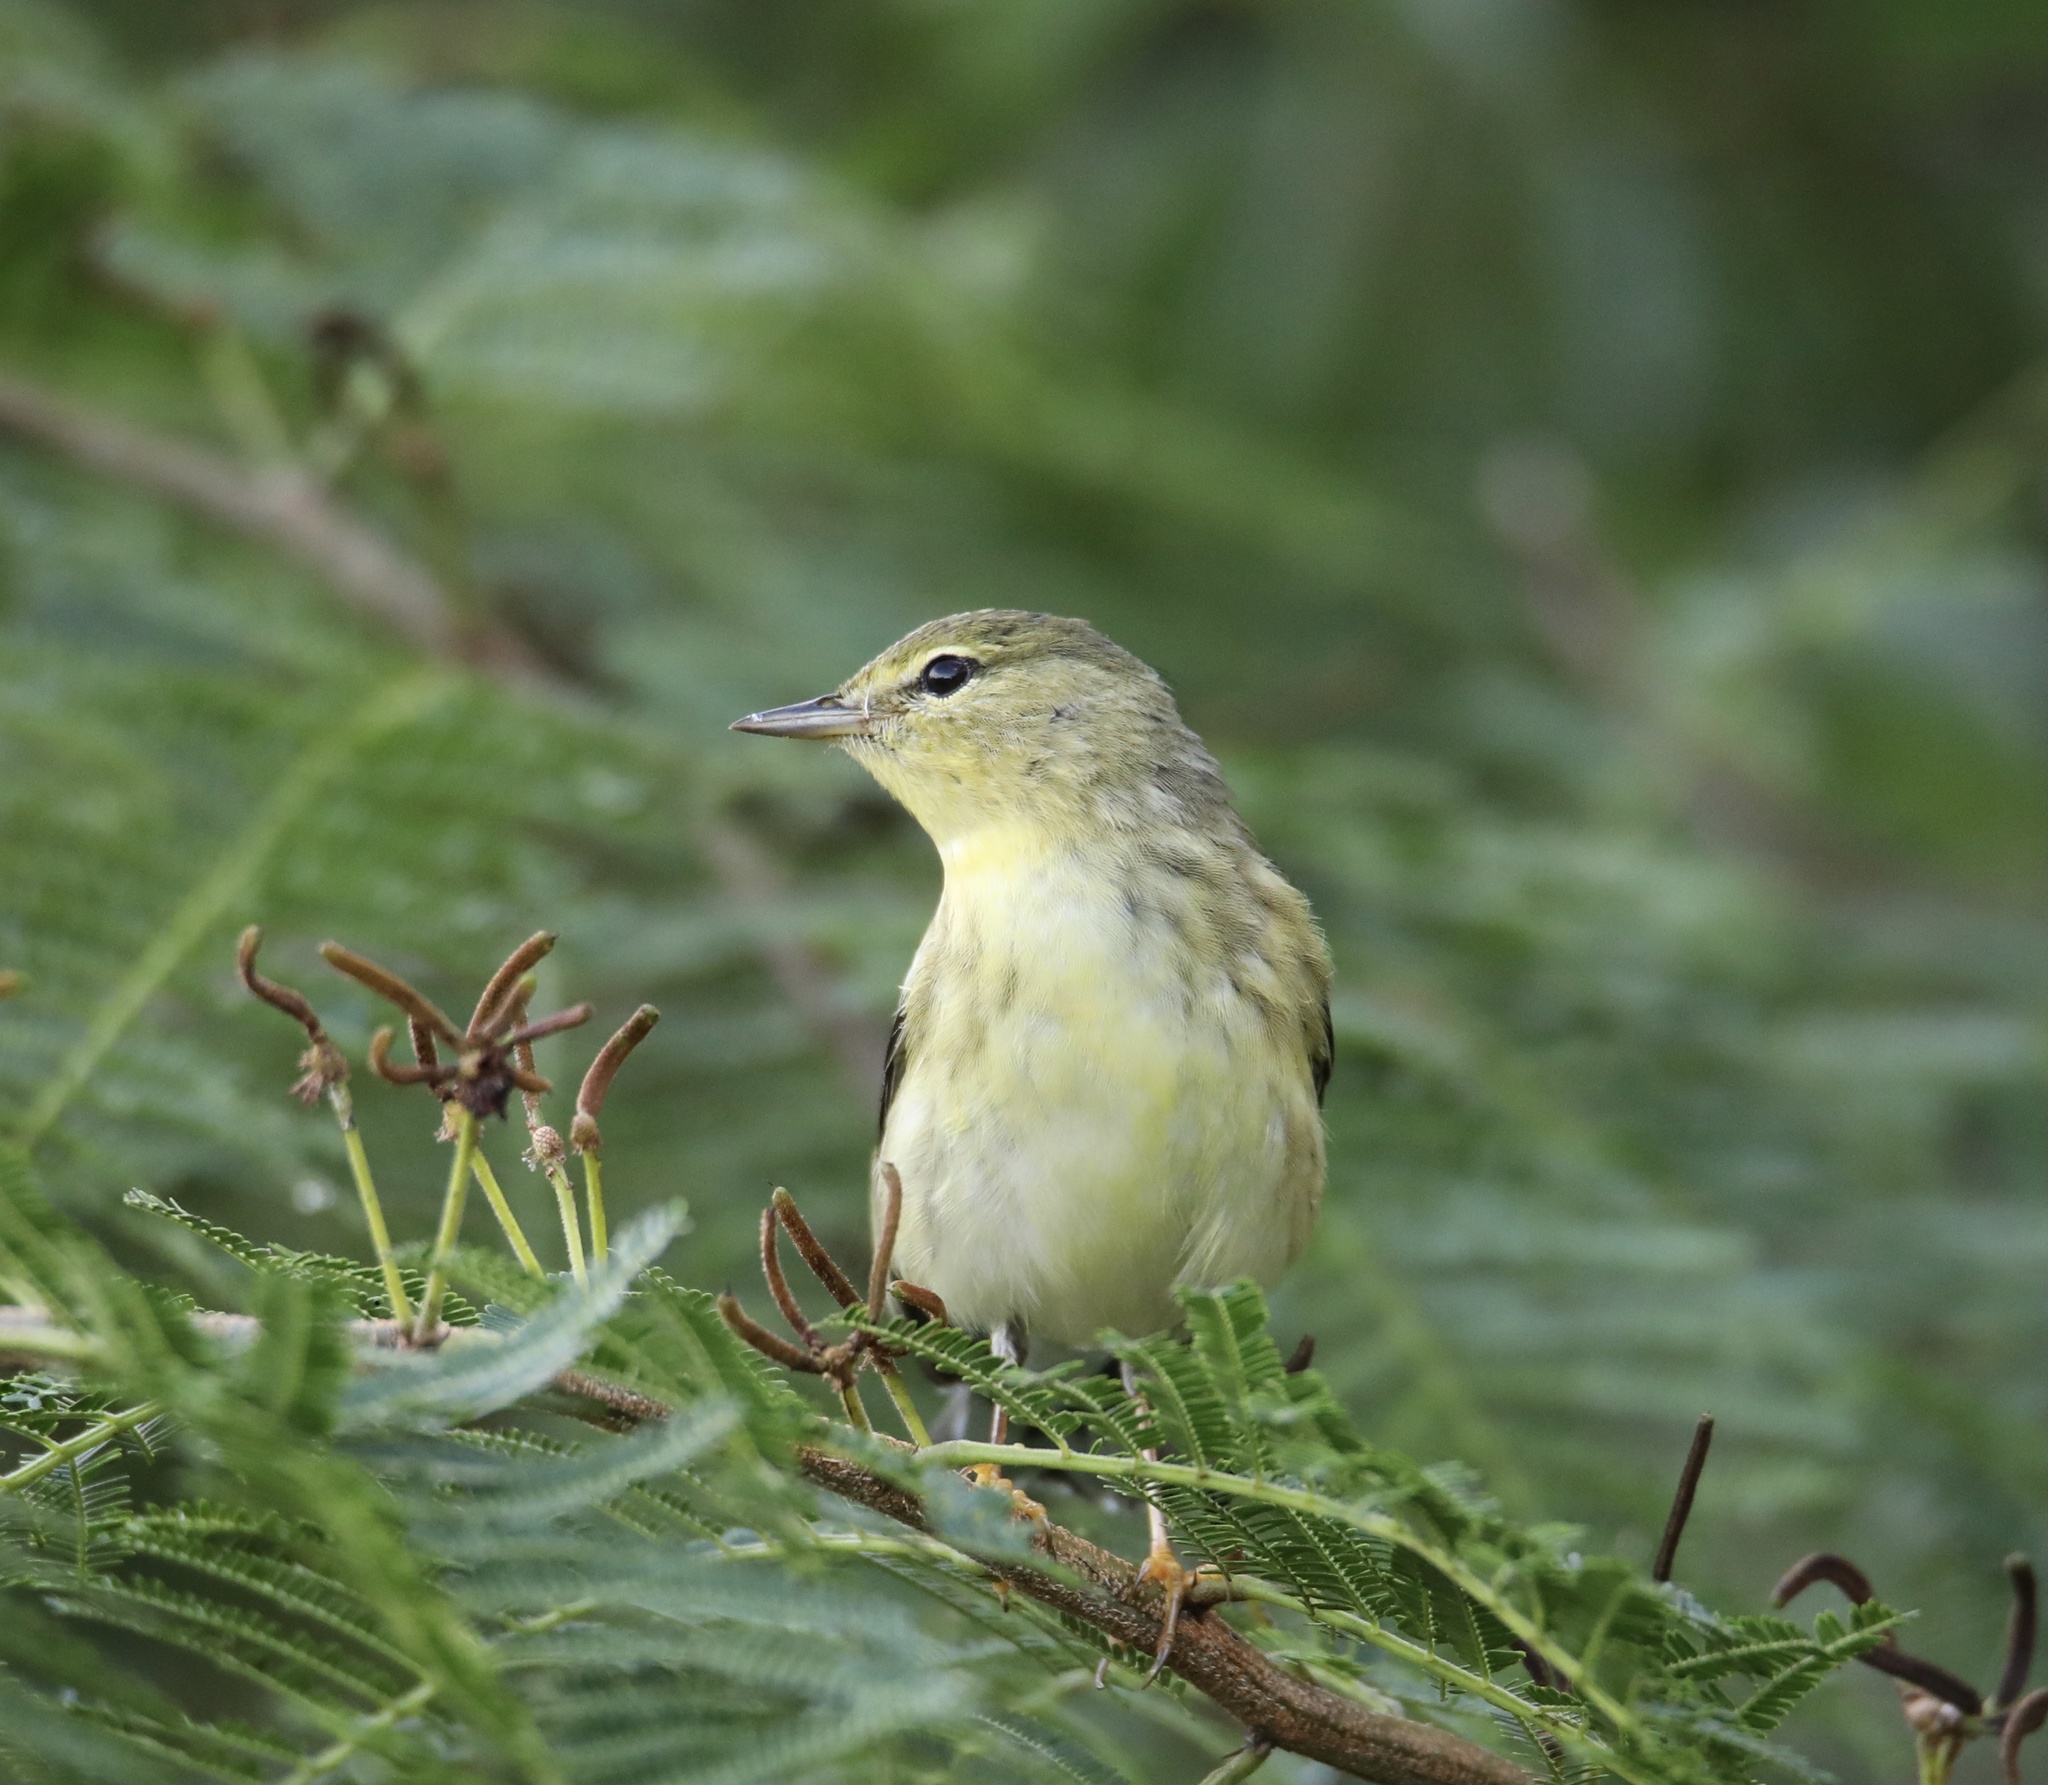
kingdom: Animalia
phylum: Chordata
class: Aves
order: Passeriformes
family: Parulidae
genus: Setophaga
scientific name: Setophaga striata
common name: Blackpoll warbler
